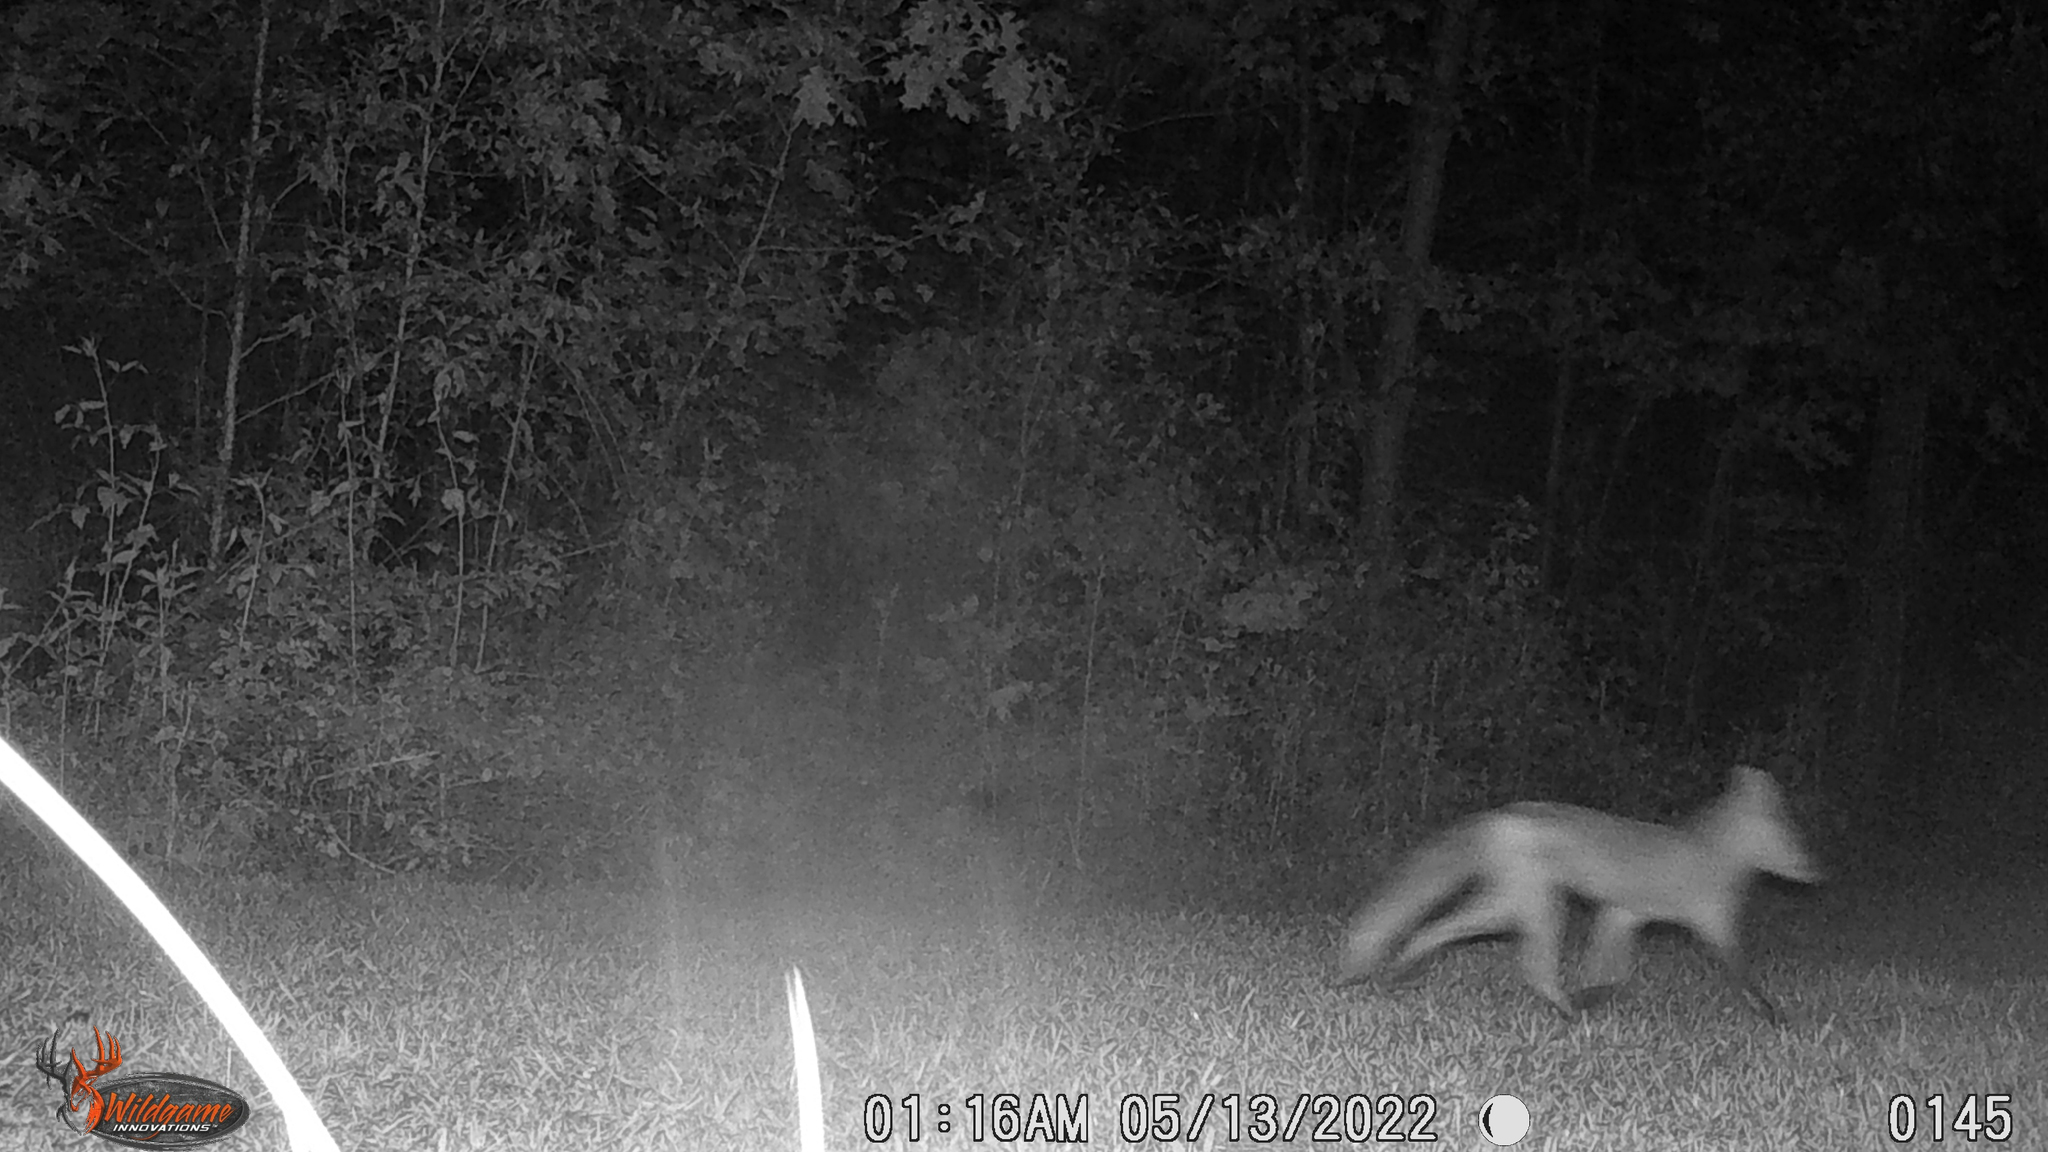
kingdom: Animalia
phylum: Chordata
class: Mammalia
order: Carnivora
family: Canidae
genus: Vulpes
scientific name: Vulpes vulpes
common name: Red fox
